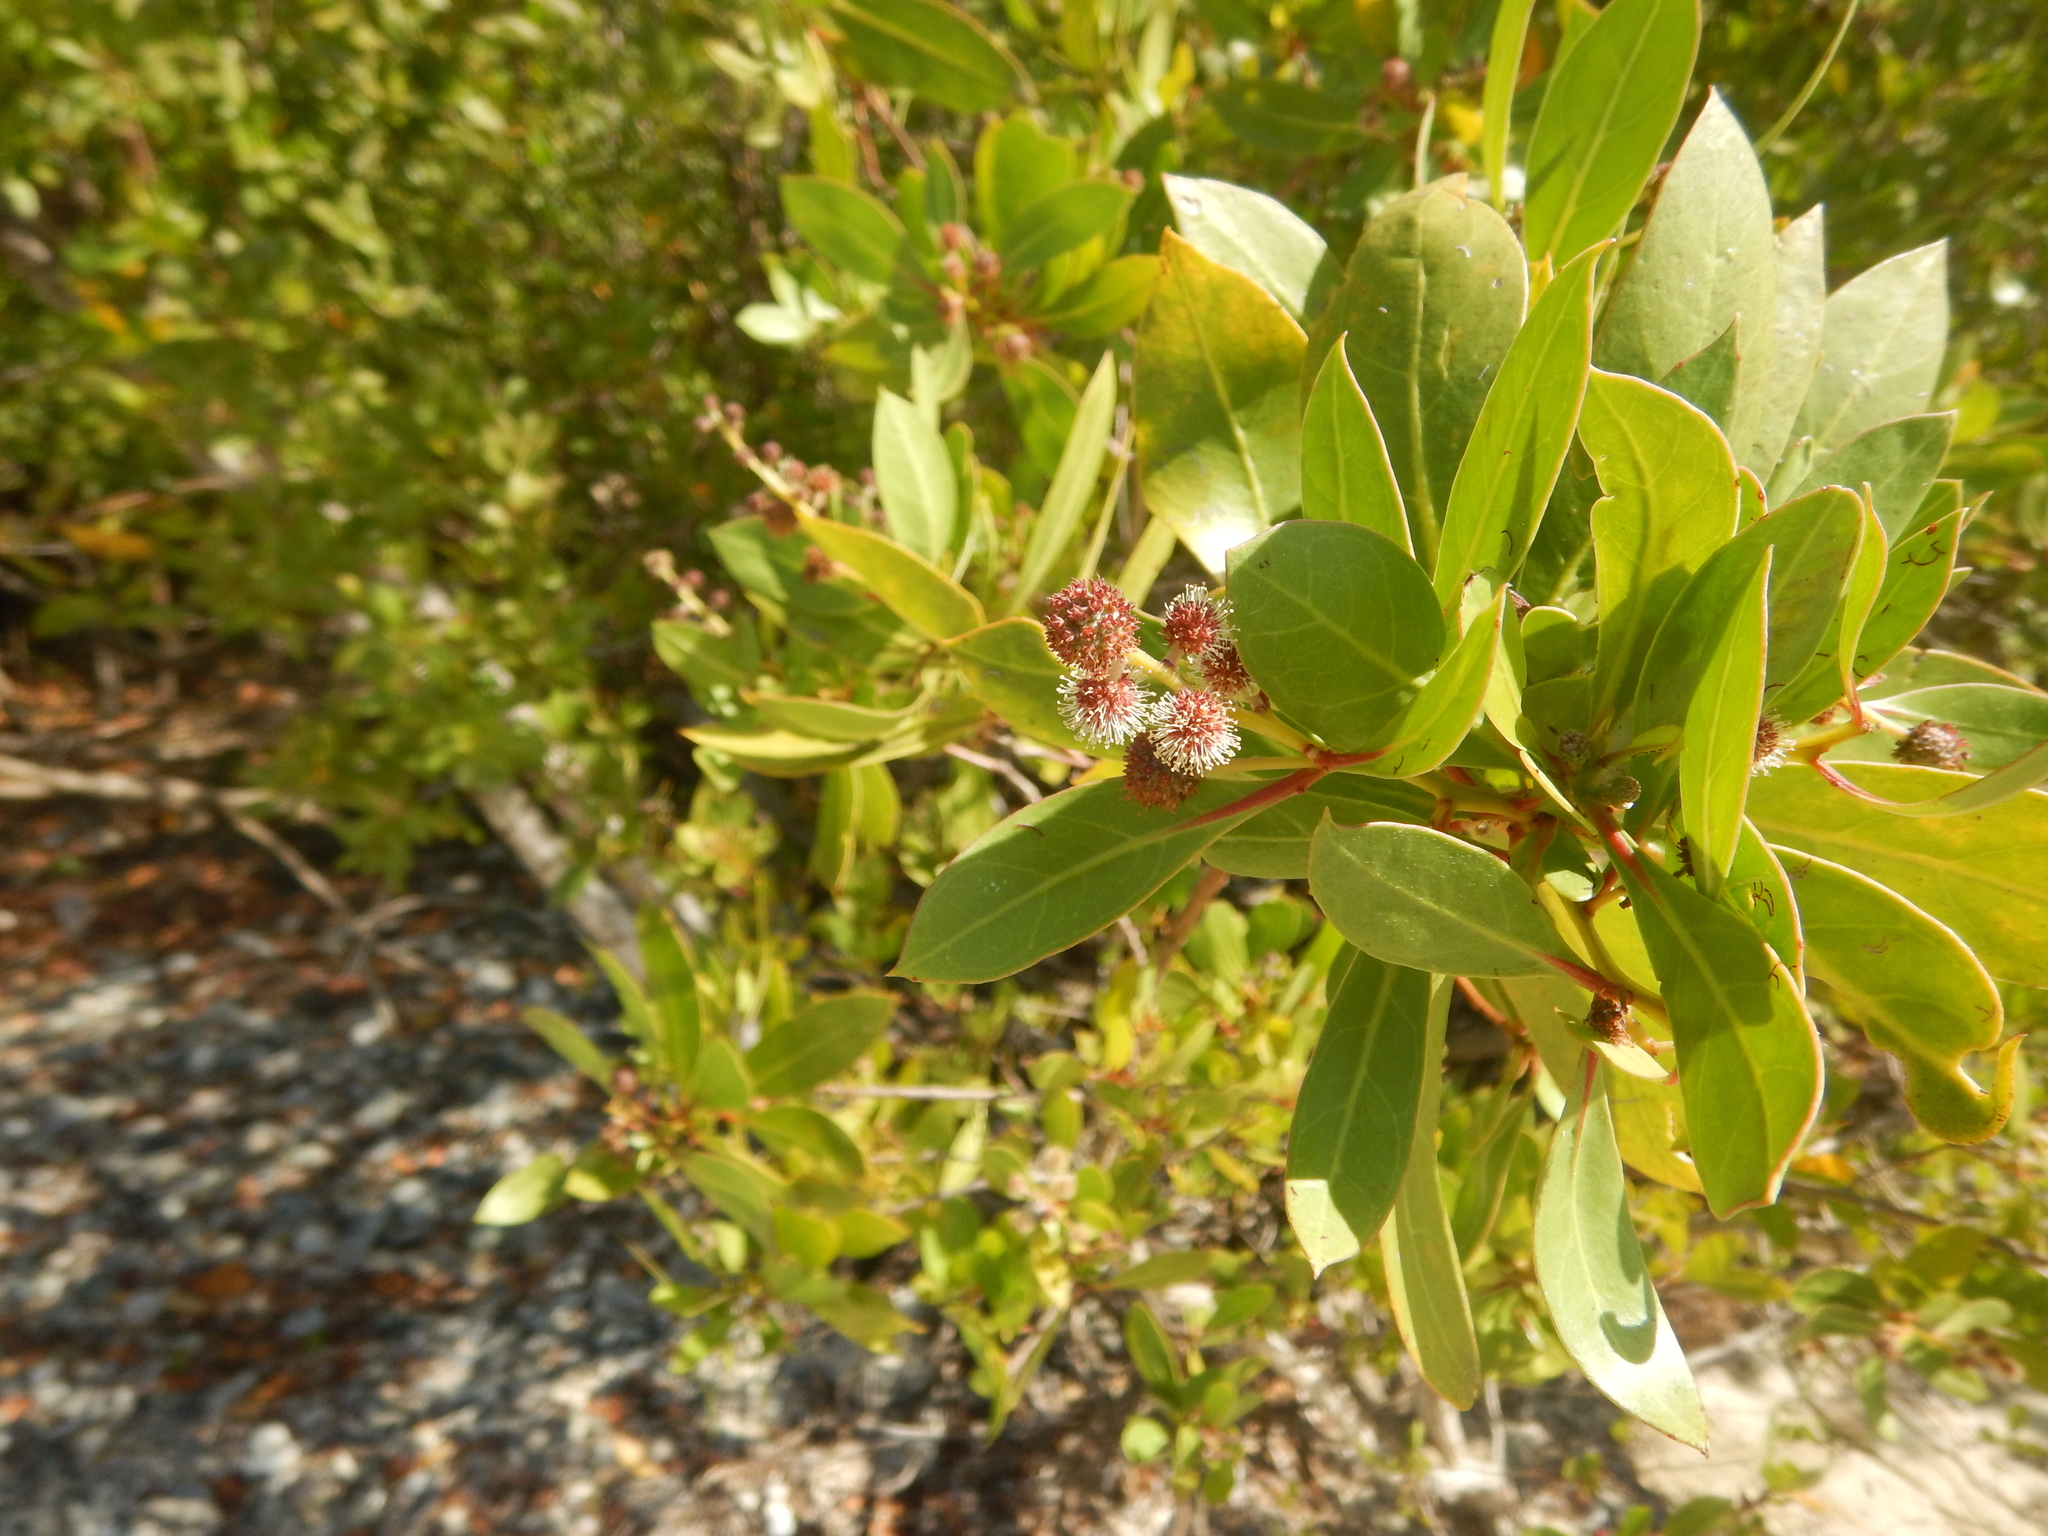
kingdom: Plantae
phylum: Tracheophyta
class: Magnoliopsida
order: Myrtales
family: Combretaceae
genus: Conocarpus
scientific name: Conocarpus erectus
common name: Button mangrove
